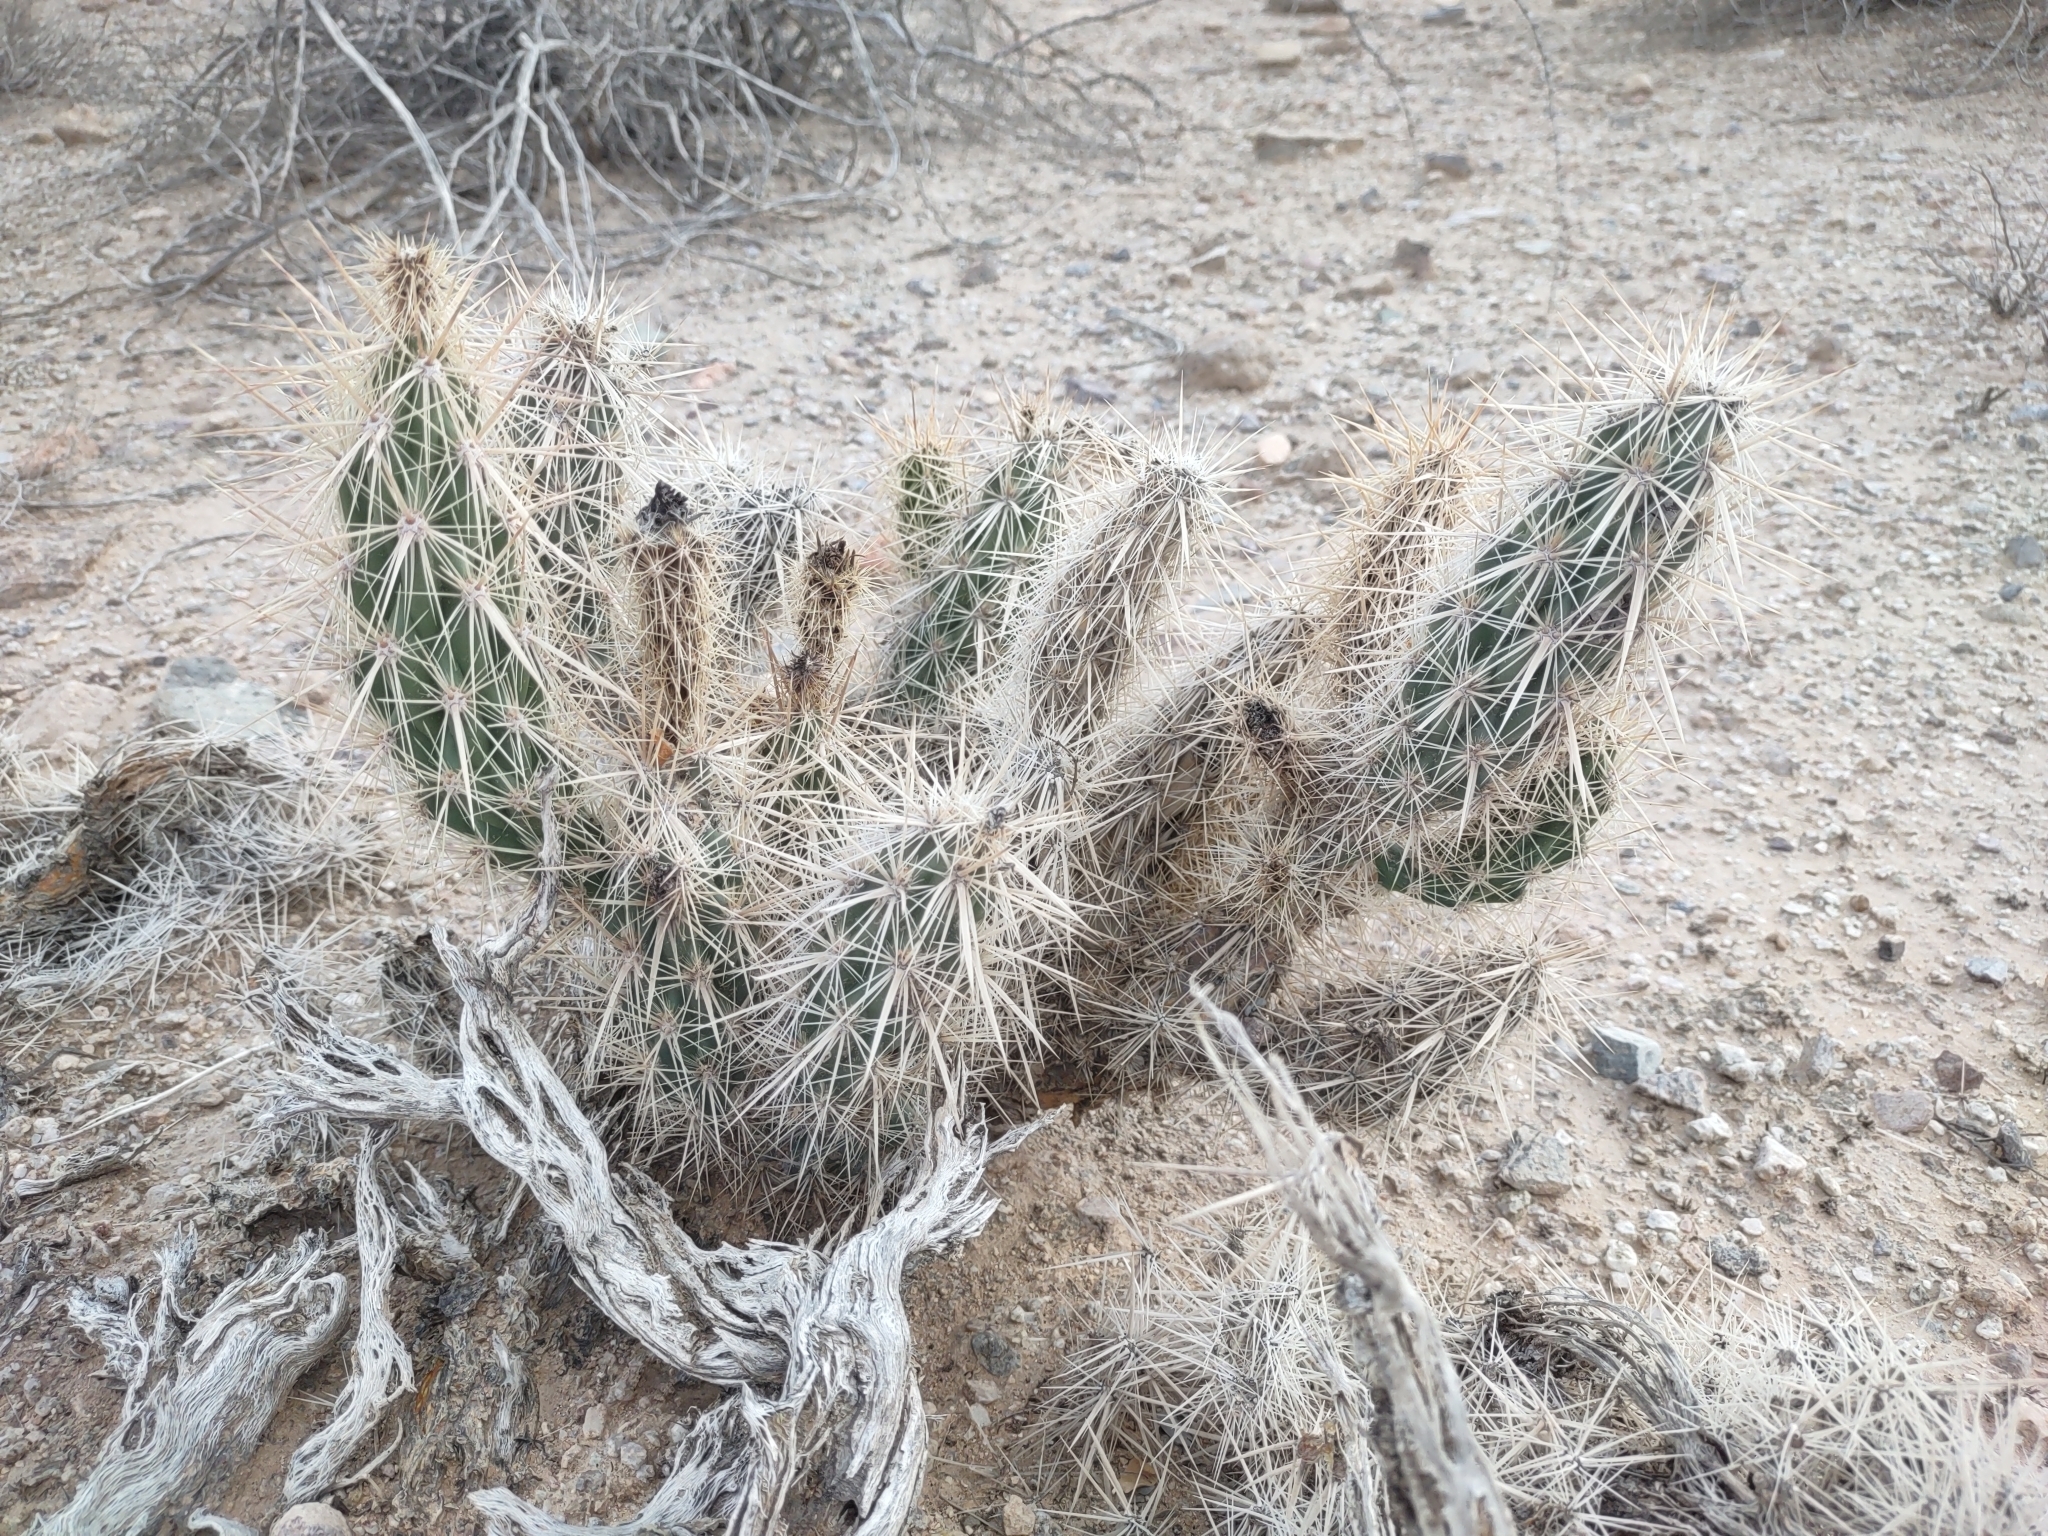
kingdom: Plantae
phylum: Tracheophyta
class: Magnoliopsida
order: Caryophyllales
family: Cactaceae
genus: Grusonia
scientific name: Grusonia kunzei
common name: Wright's club cholla
